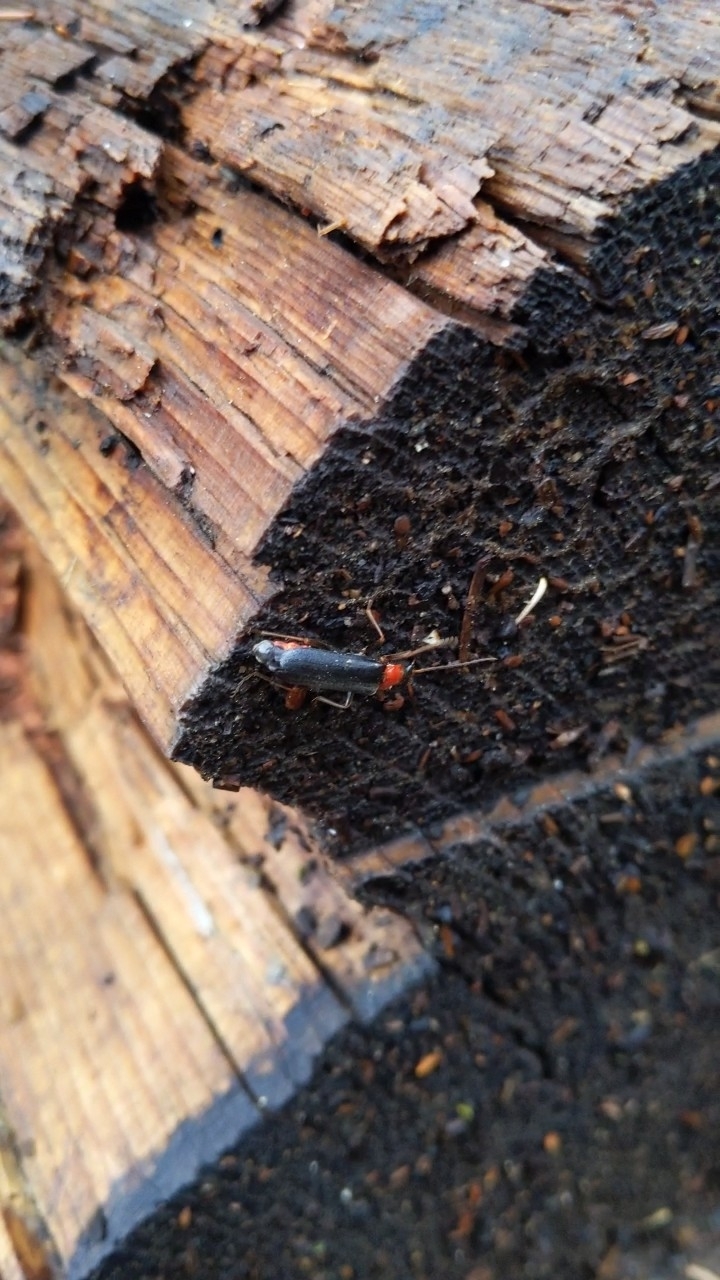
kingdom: Animalia
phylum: Arthropoda
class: Insecta
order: Coleoptera
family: Cantharidae
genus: Podabrus
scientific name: Podabrus pruinosus
